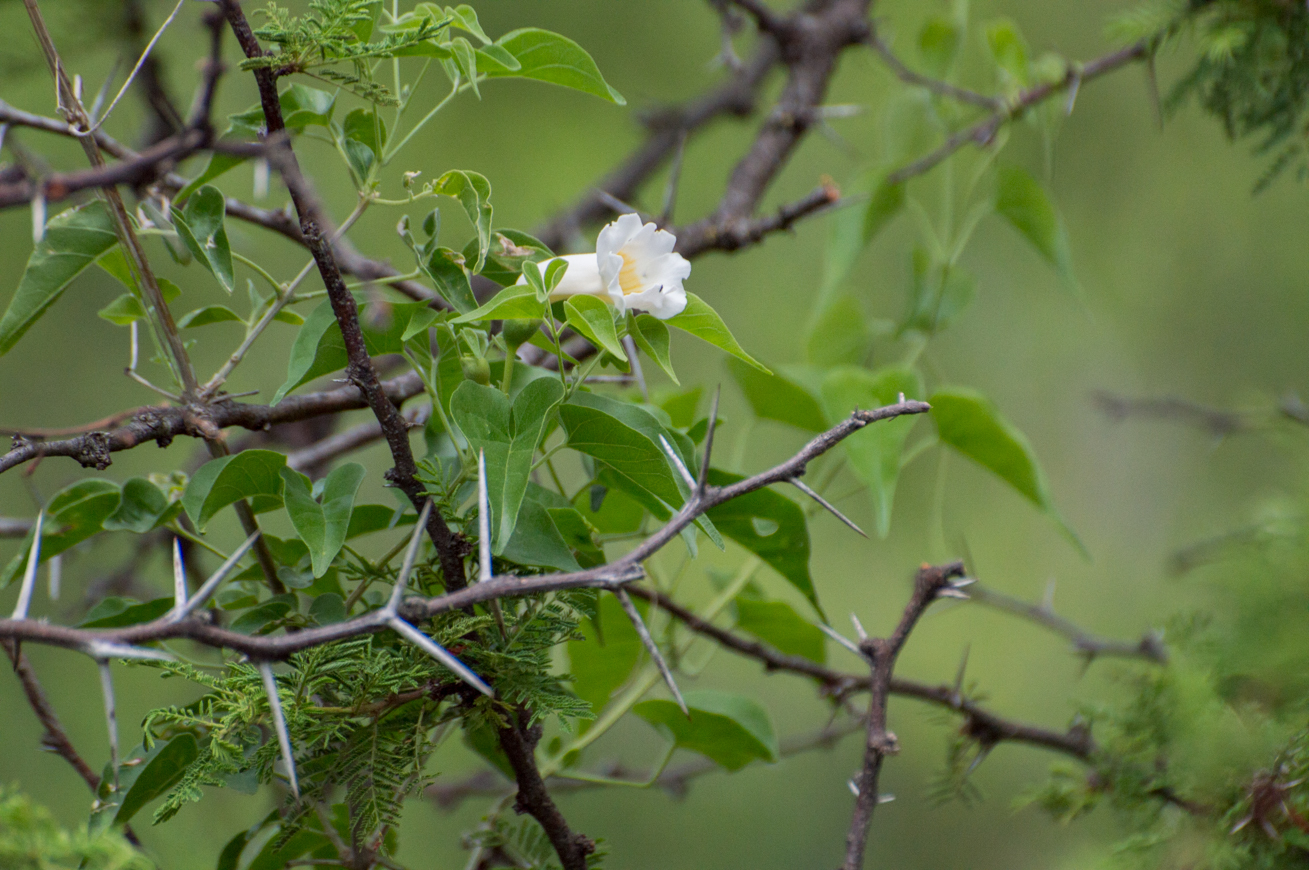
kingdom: Plantae
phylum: Tracheophyta
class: Magnoliopsida
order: Lamiales
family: Bignoniaceae
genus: Amphilophium
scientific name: Amphilophium carolinae
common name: Monkey's-comb
